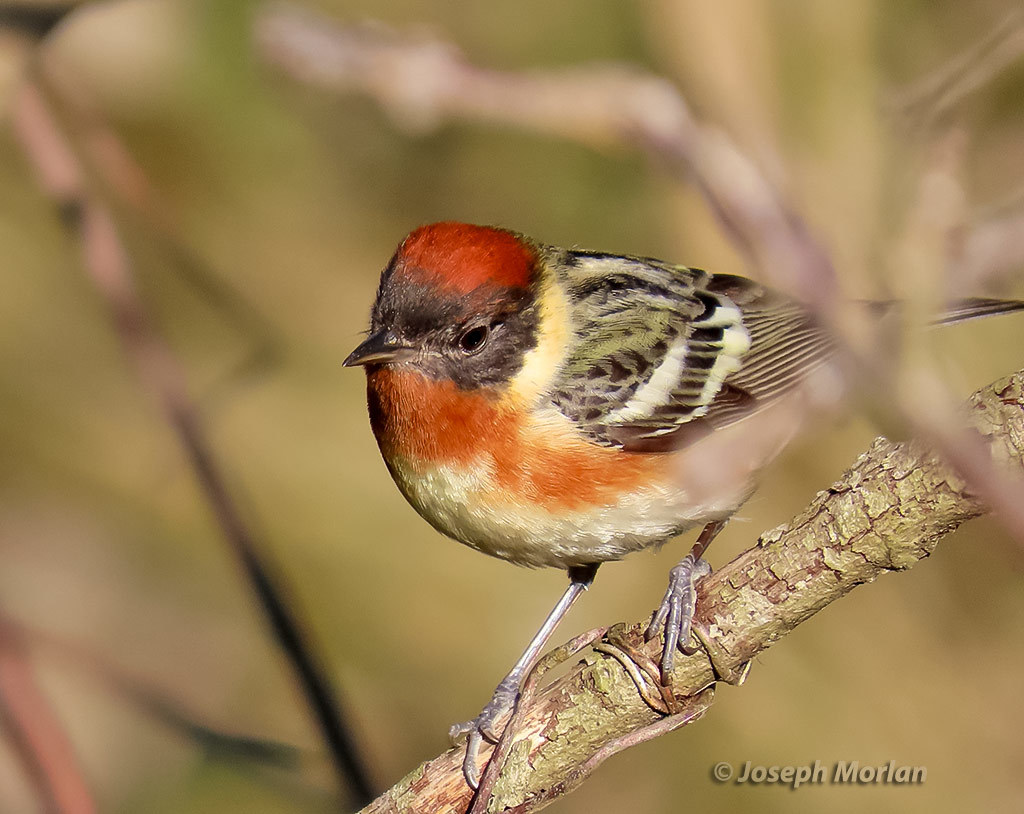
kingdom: Animalia
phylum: Chordata
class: Aves
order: Passeriformes
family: Parulidae
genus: Setophaga
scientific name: Setophaga castanea
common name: Bay-breasted warbler
